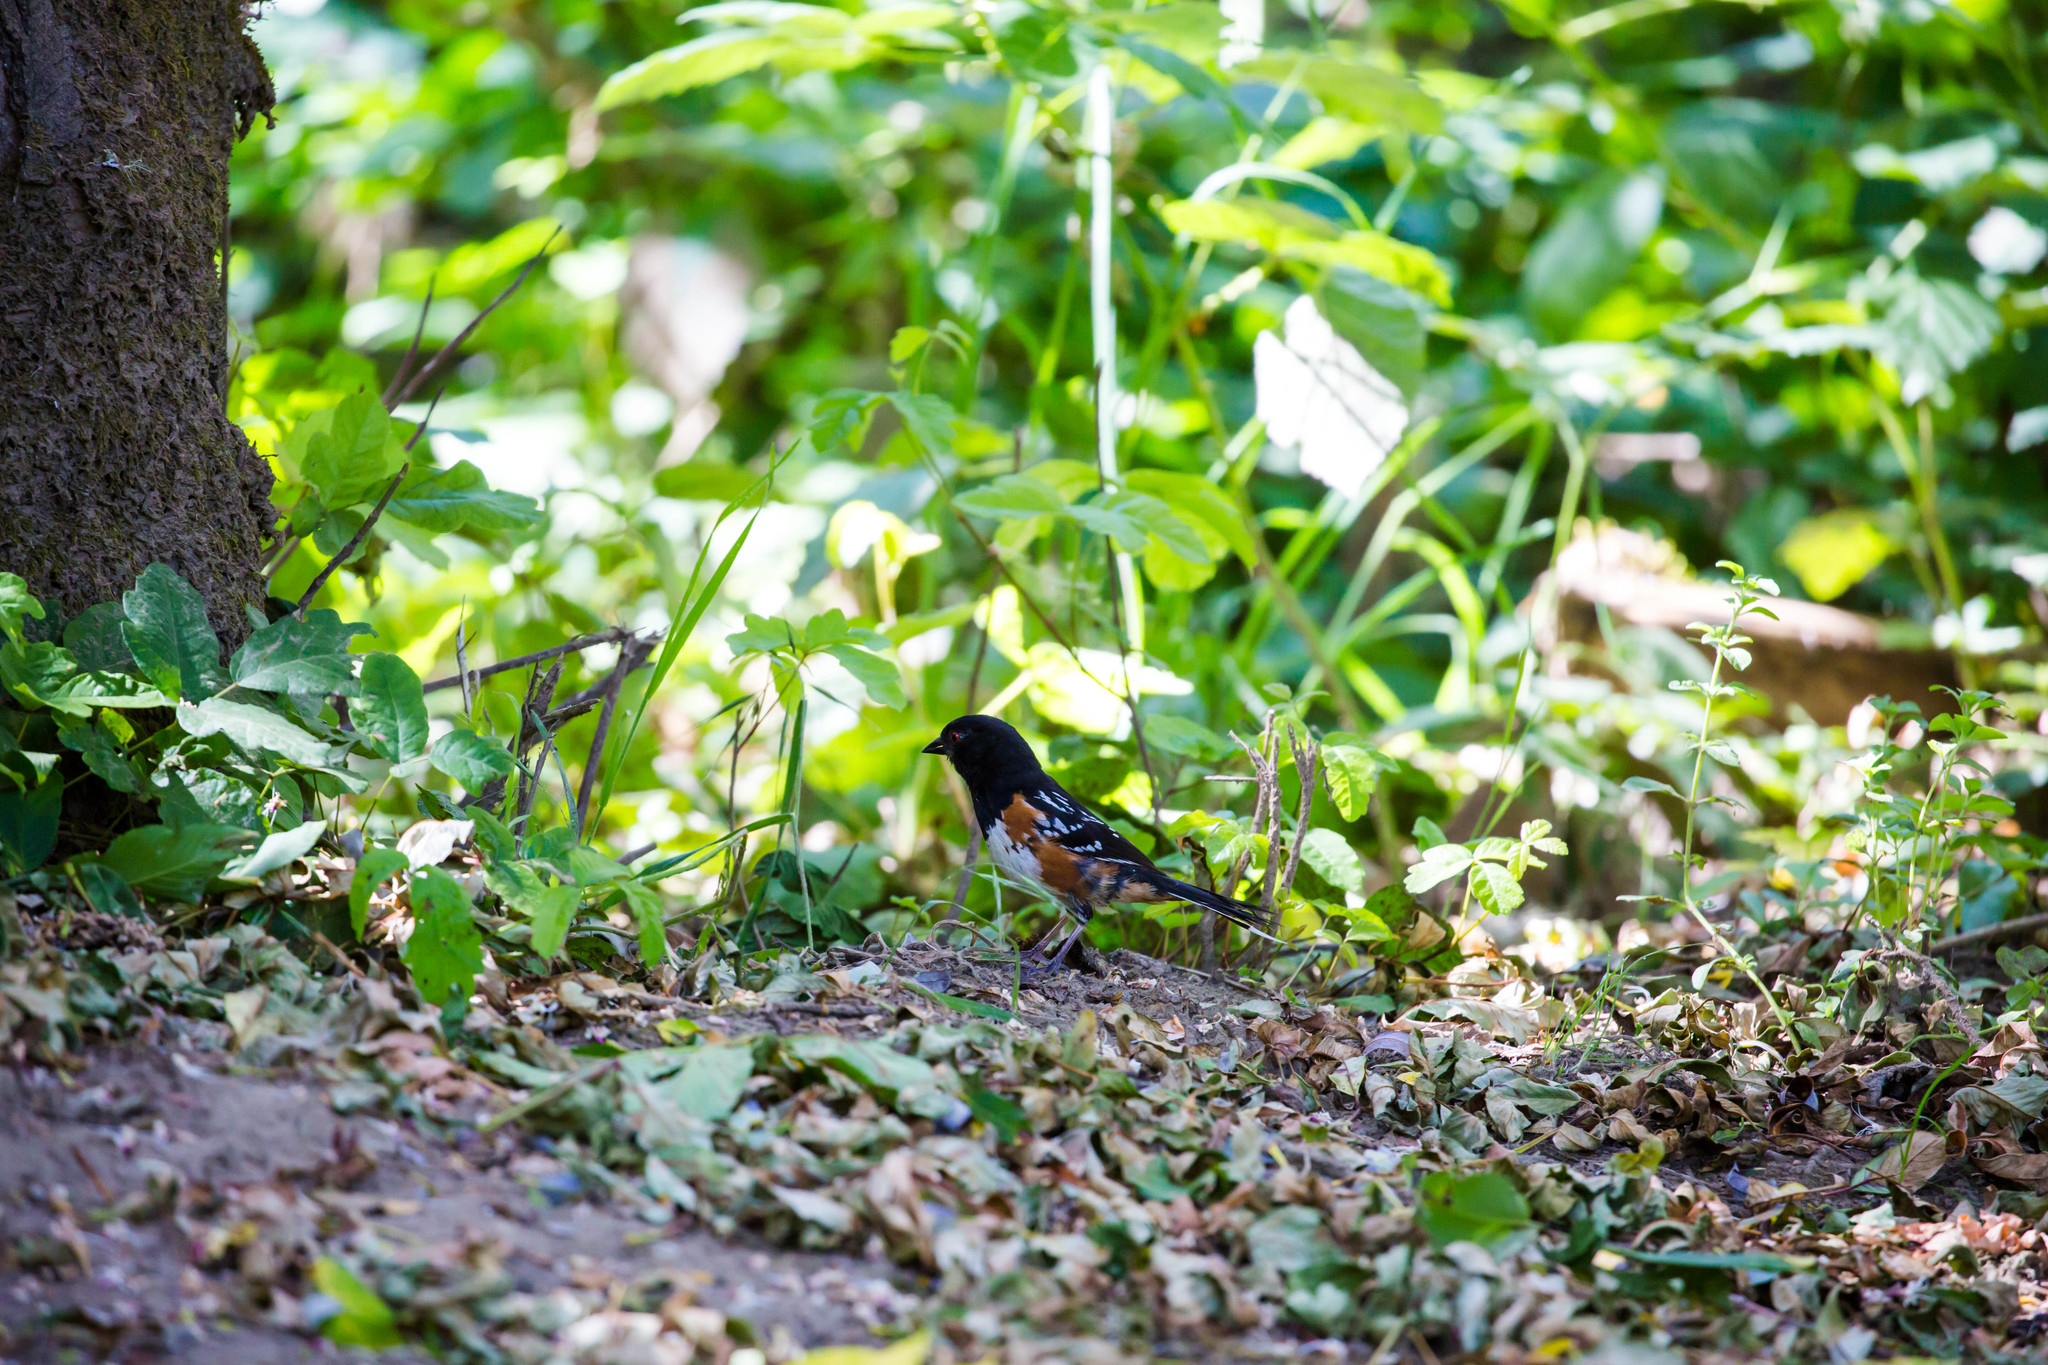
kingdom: Animalia
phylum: Chordata
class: Aves
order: Passeriformes
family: Passerellidae
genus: Pipilo
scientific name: Pipilo maculatus
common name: Spotted towhee
